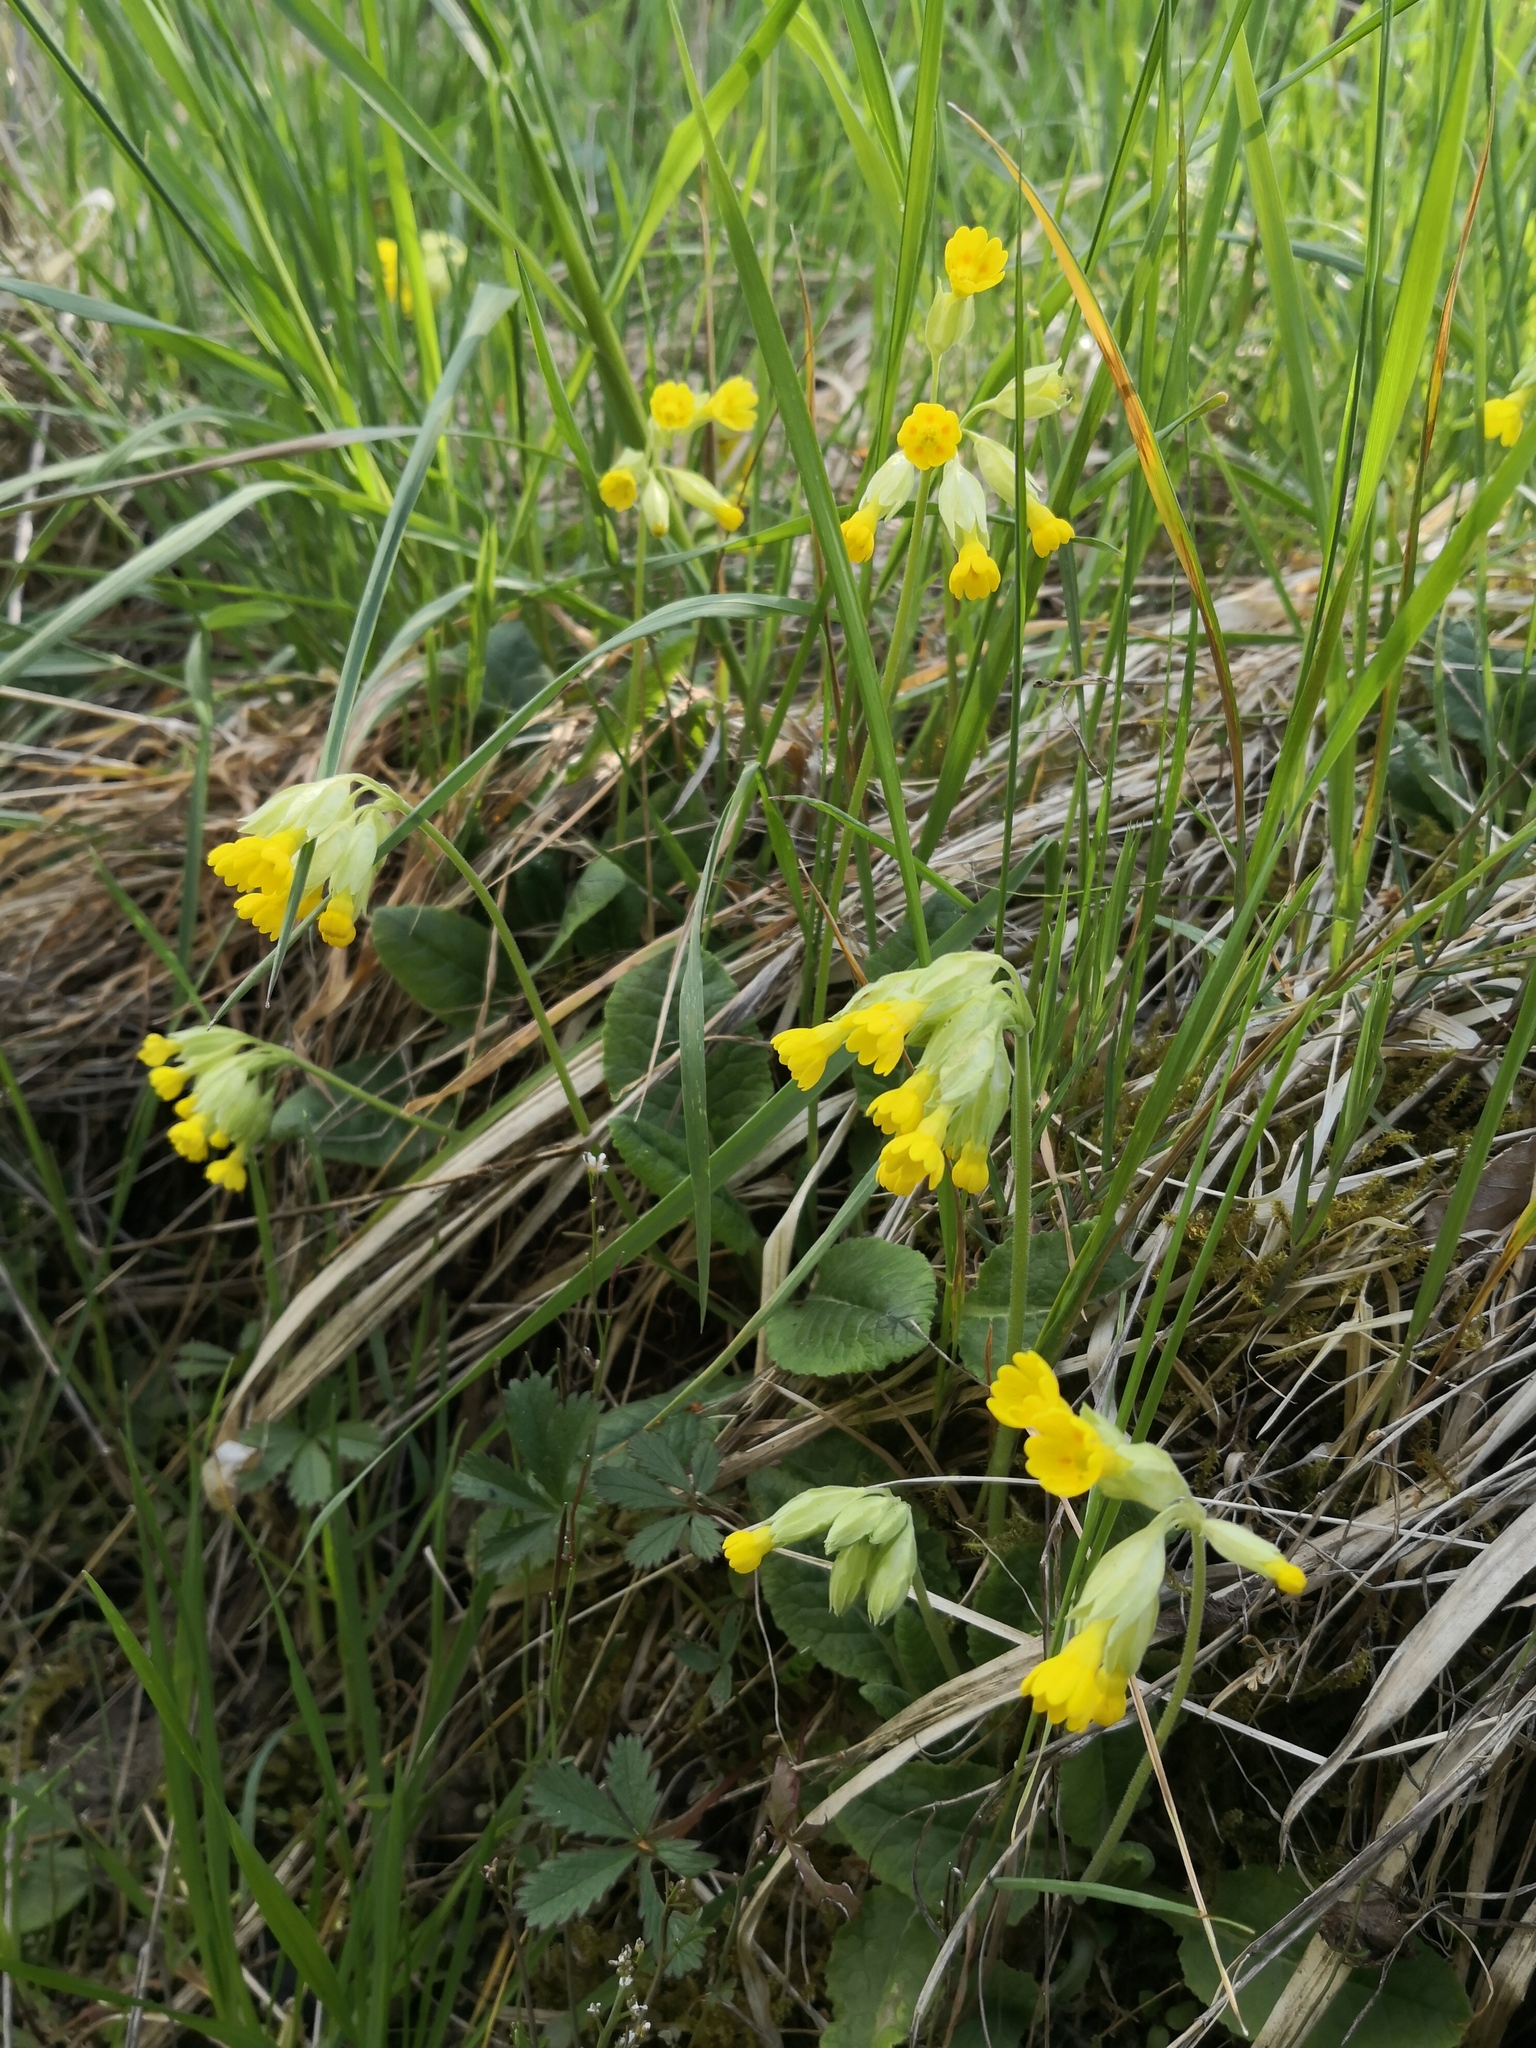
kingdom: Plantae
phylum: Tracheophyta
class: Magnoliopsida
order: Ericales
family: Primulaceae
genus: Primula
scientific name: Primula veris
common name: Cowslip
